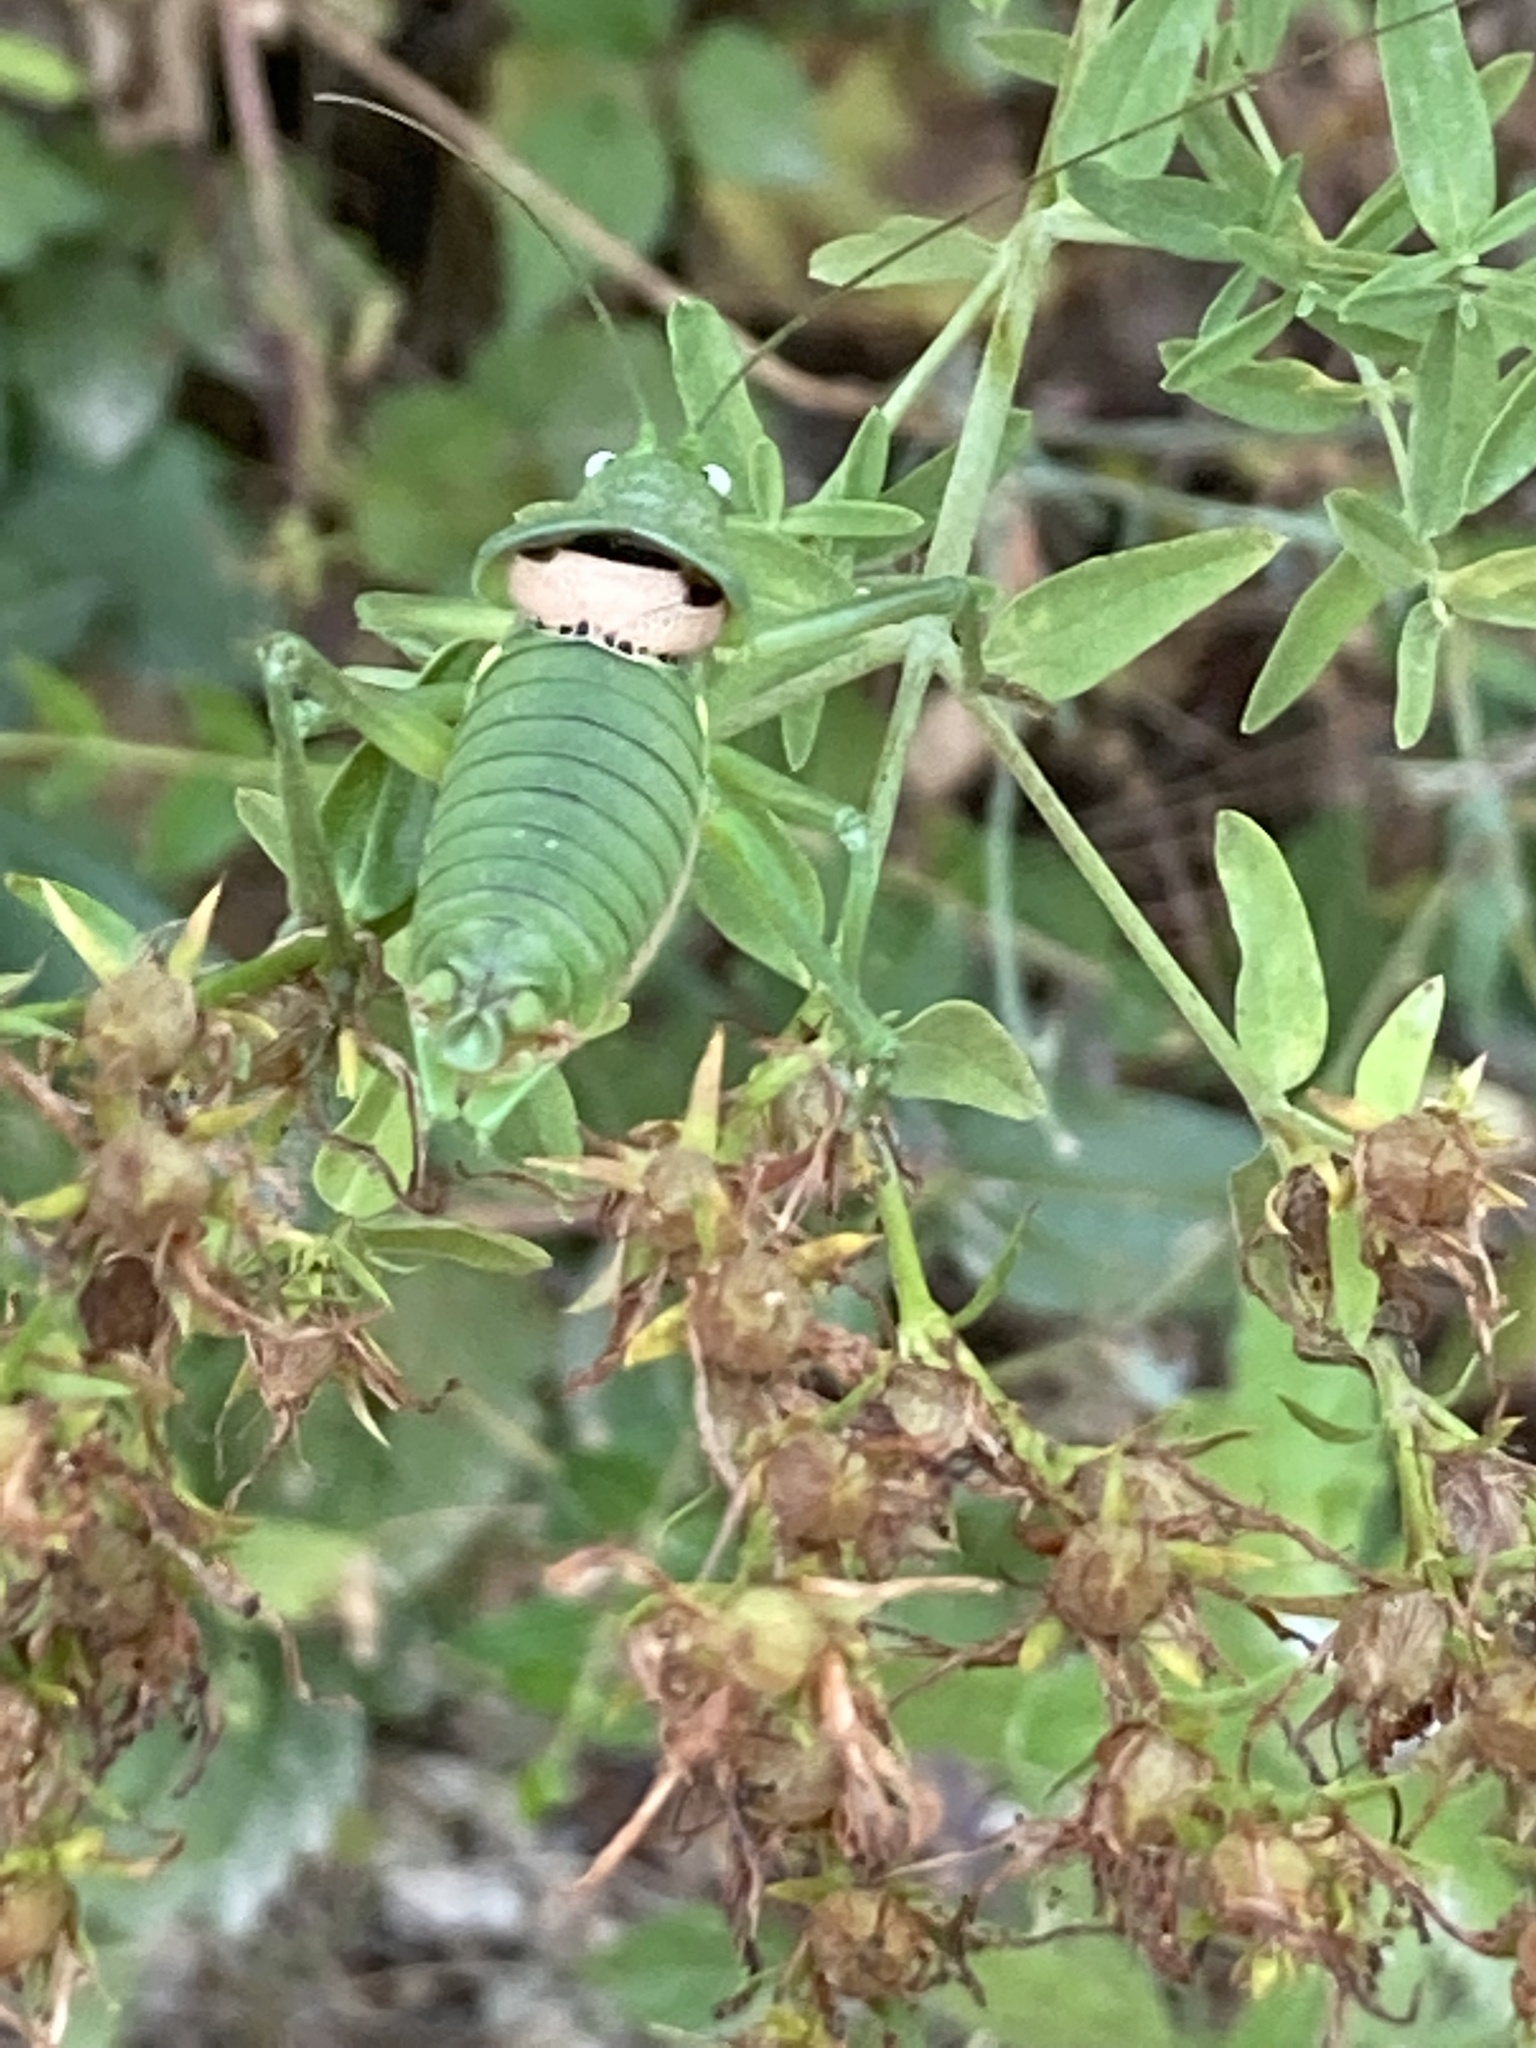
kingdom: Animalia
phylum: Arthropoda
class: Insecta
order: Orthoptera
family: Tettigoniidae
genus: Uromenus
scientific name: Uromenus rugosicollis
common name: Rough saddle bush-cricket
